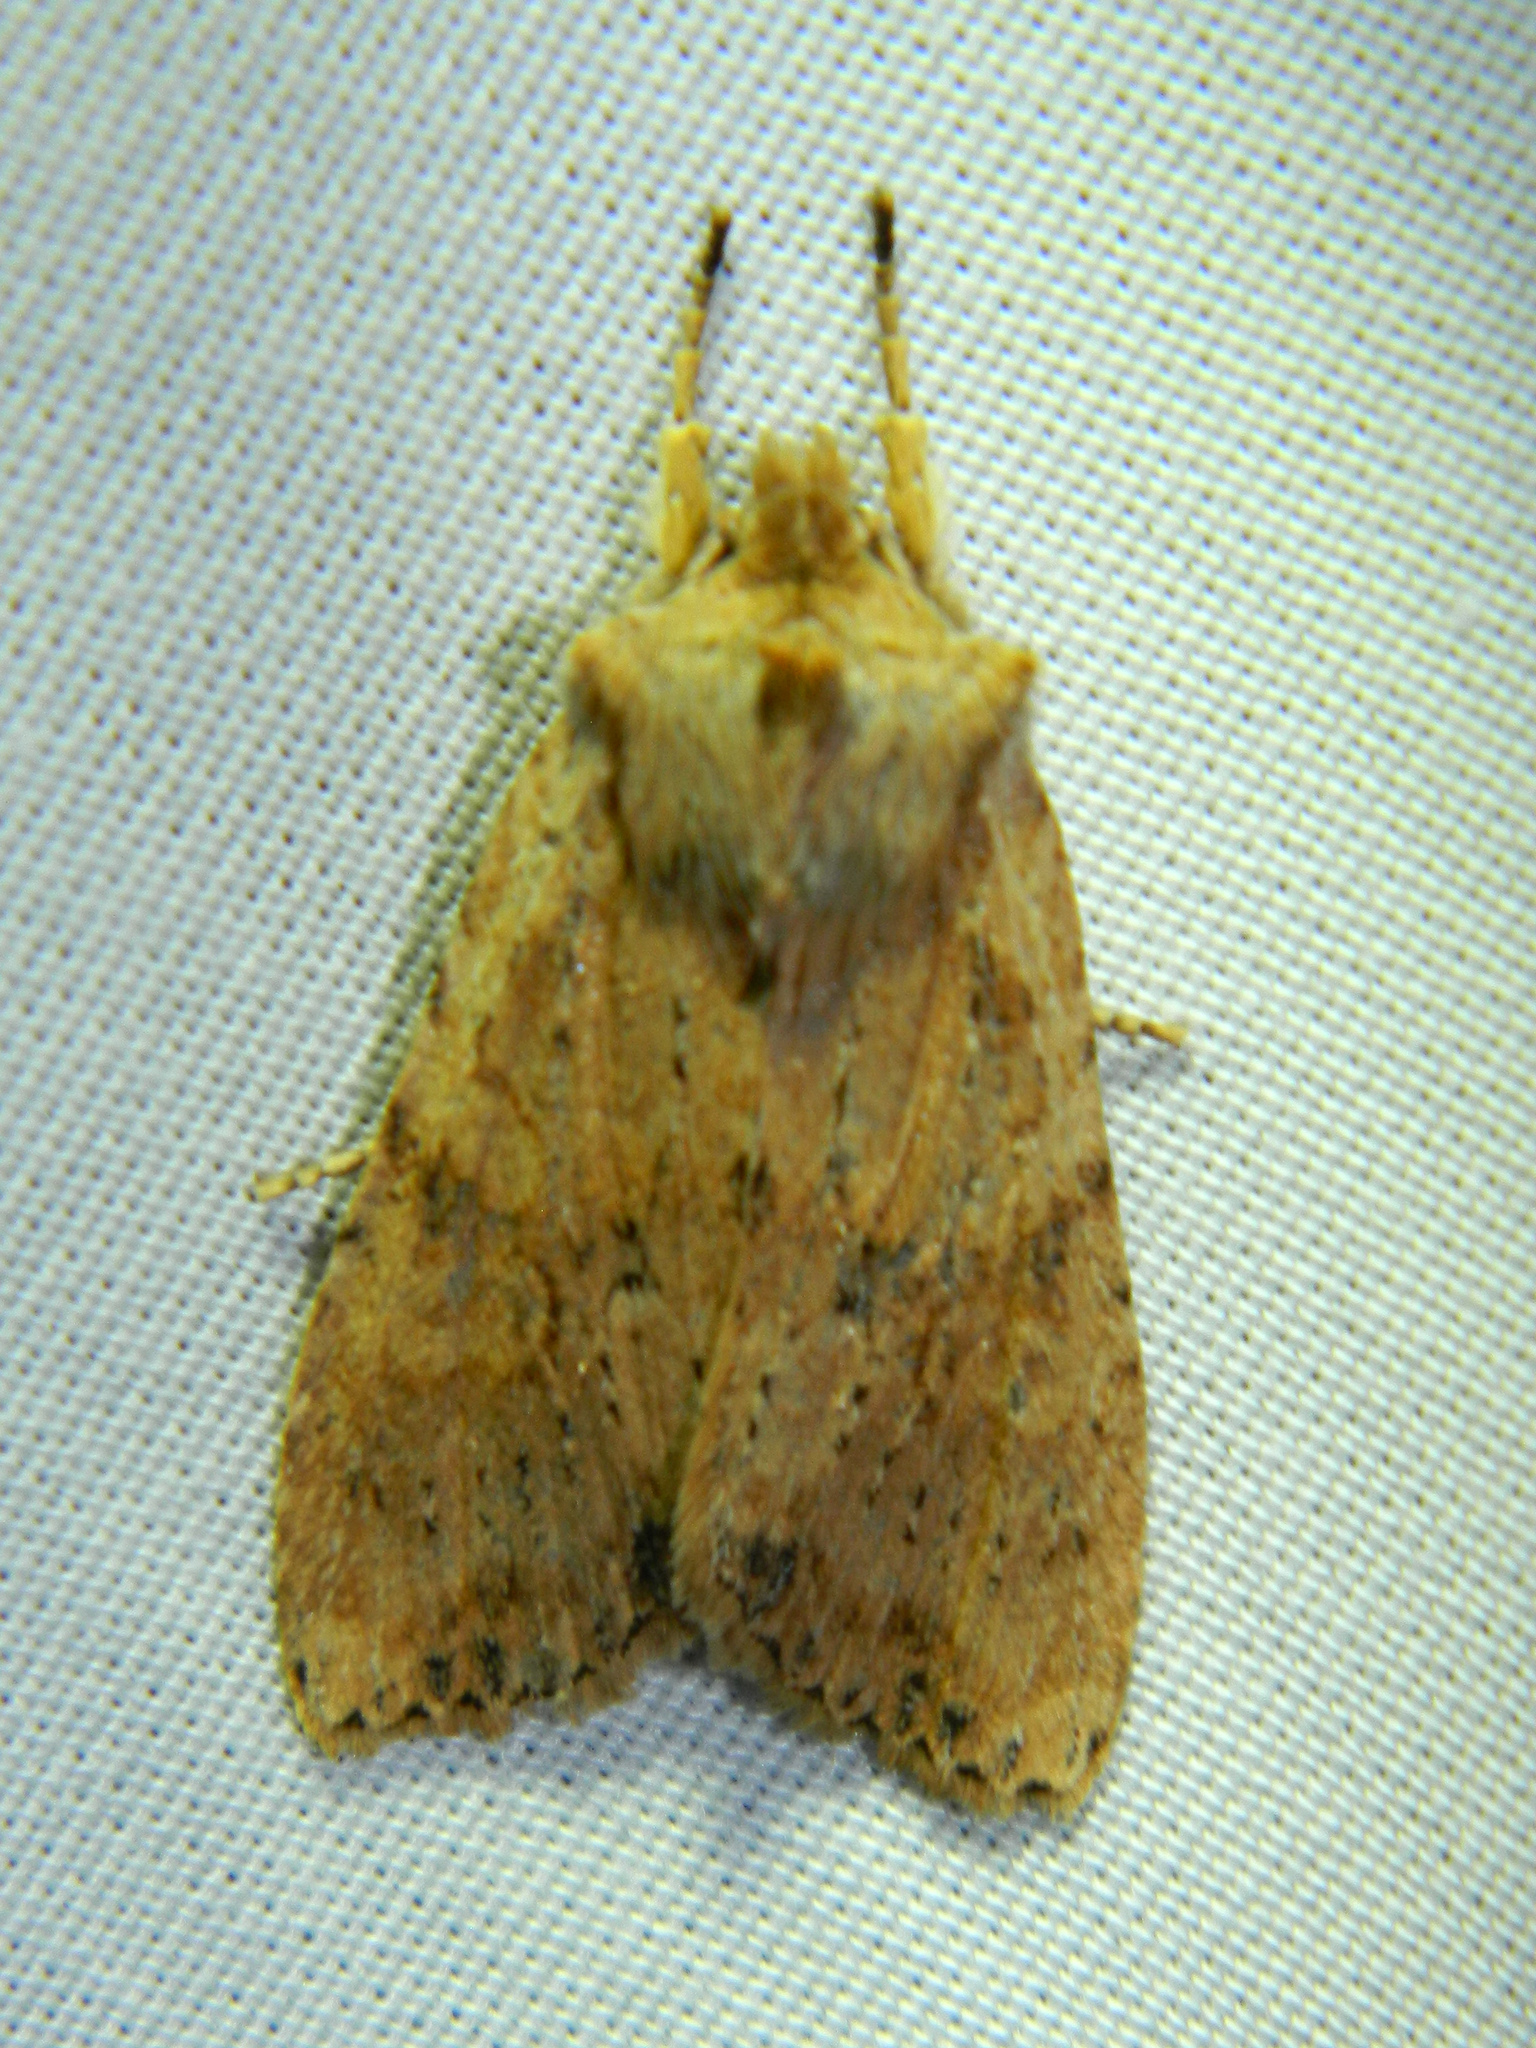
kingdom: Animalia
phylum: Arthropoda
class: Insecta
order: Lepidoptera
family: Noctuidae
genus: Lithophane
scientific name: Lithophane innominata
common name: Nameless pinion moth
